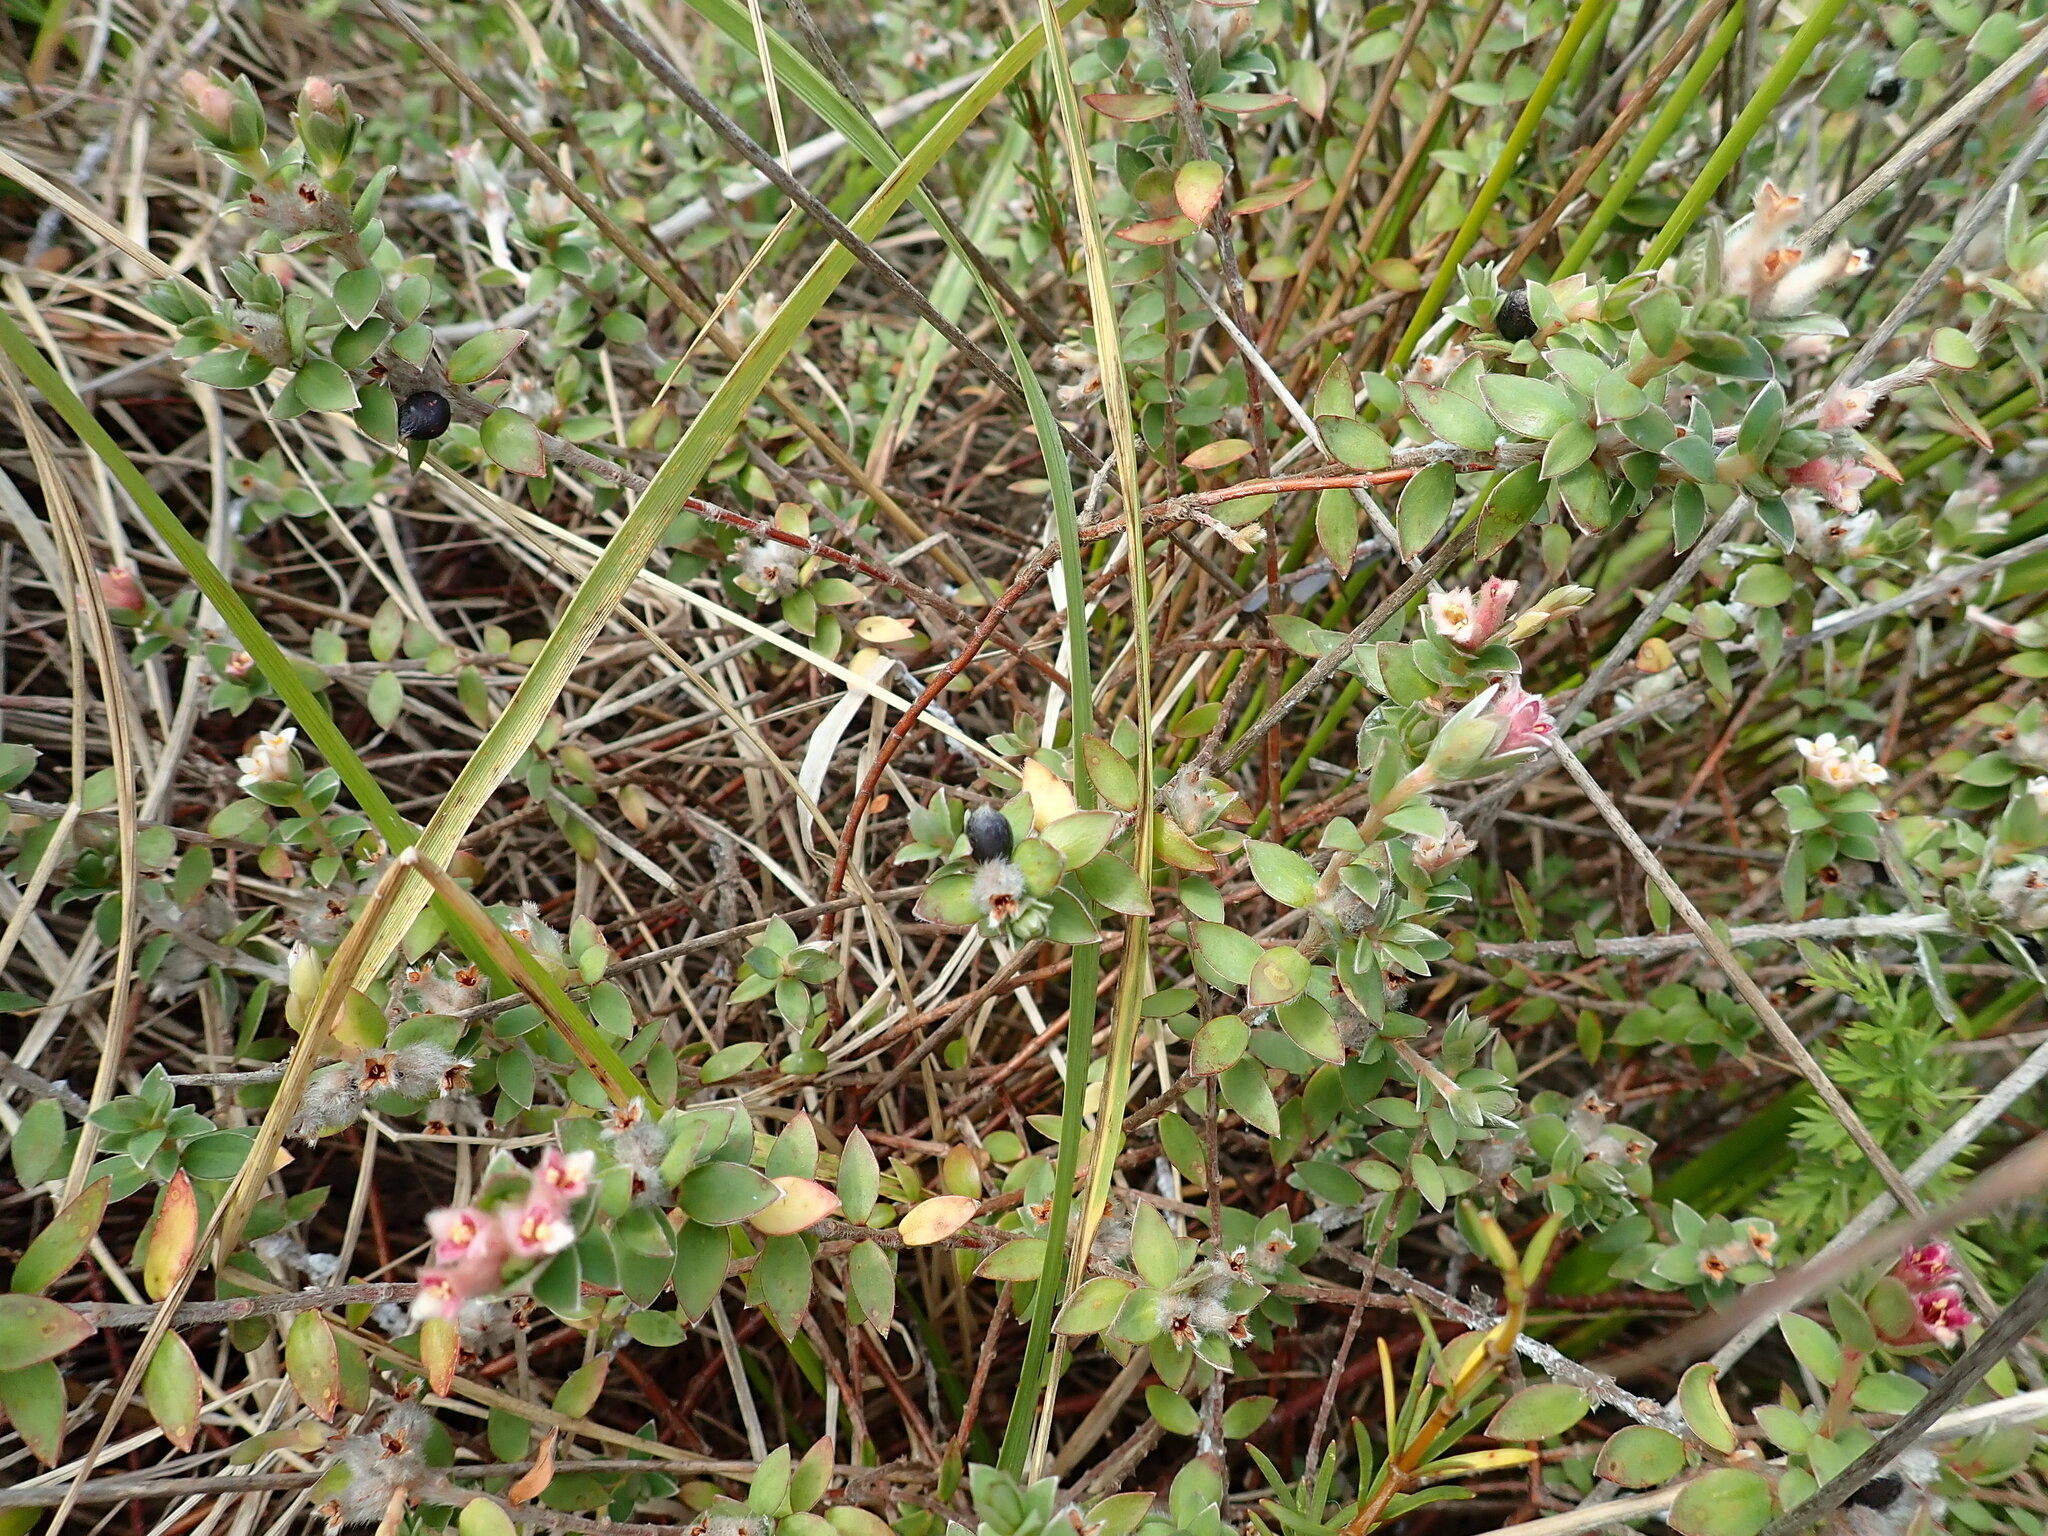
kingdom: Plantae
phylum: Tracheophyta
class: Magnoliopsida
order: Malvales
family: Thymelaeaceae
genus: Pimelea
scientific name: Pimelea villosa
